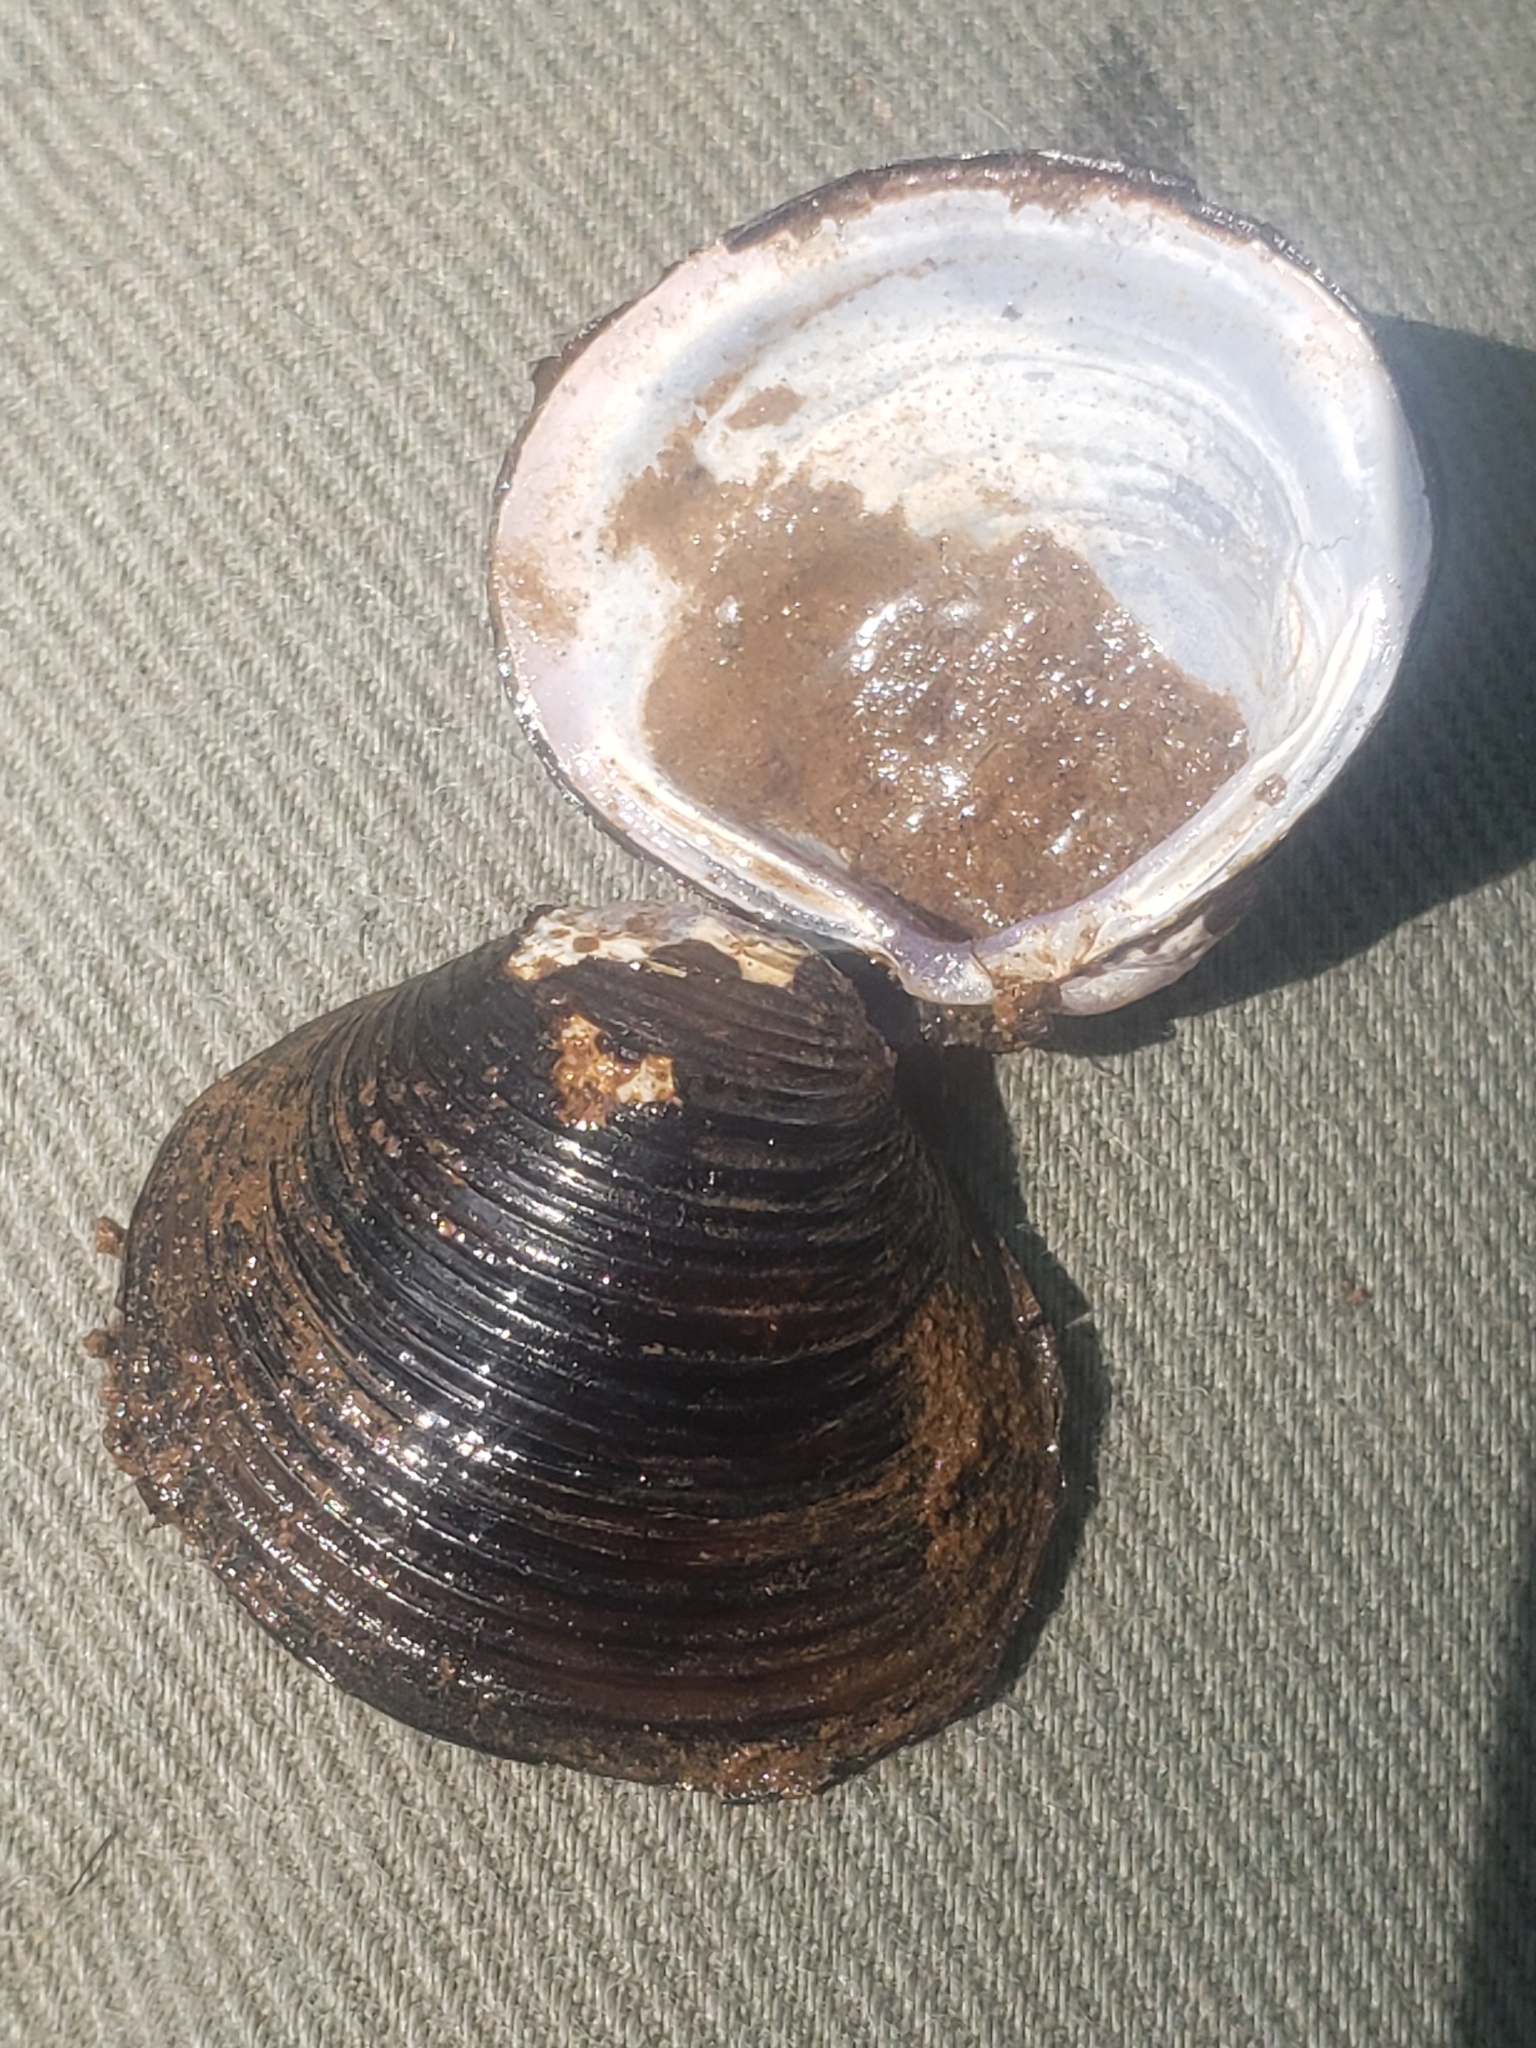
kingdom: Animalia
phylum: Mollusca
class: Bivalvia
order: Venerida
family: Cyrenidae
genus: Corbicula
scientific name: Corbicula fluminea
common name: Asian clam
